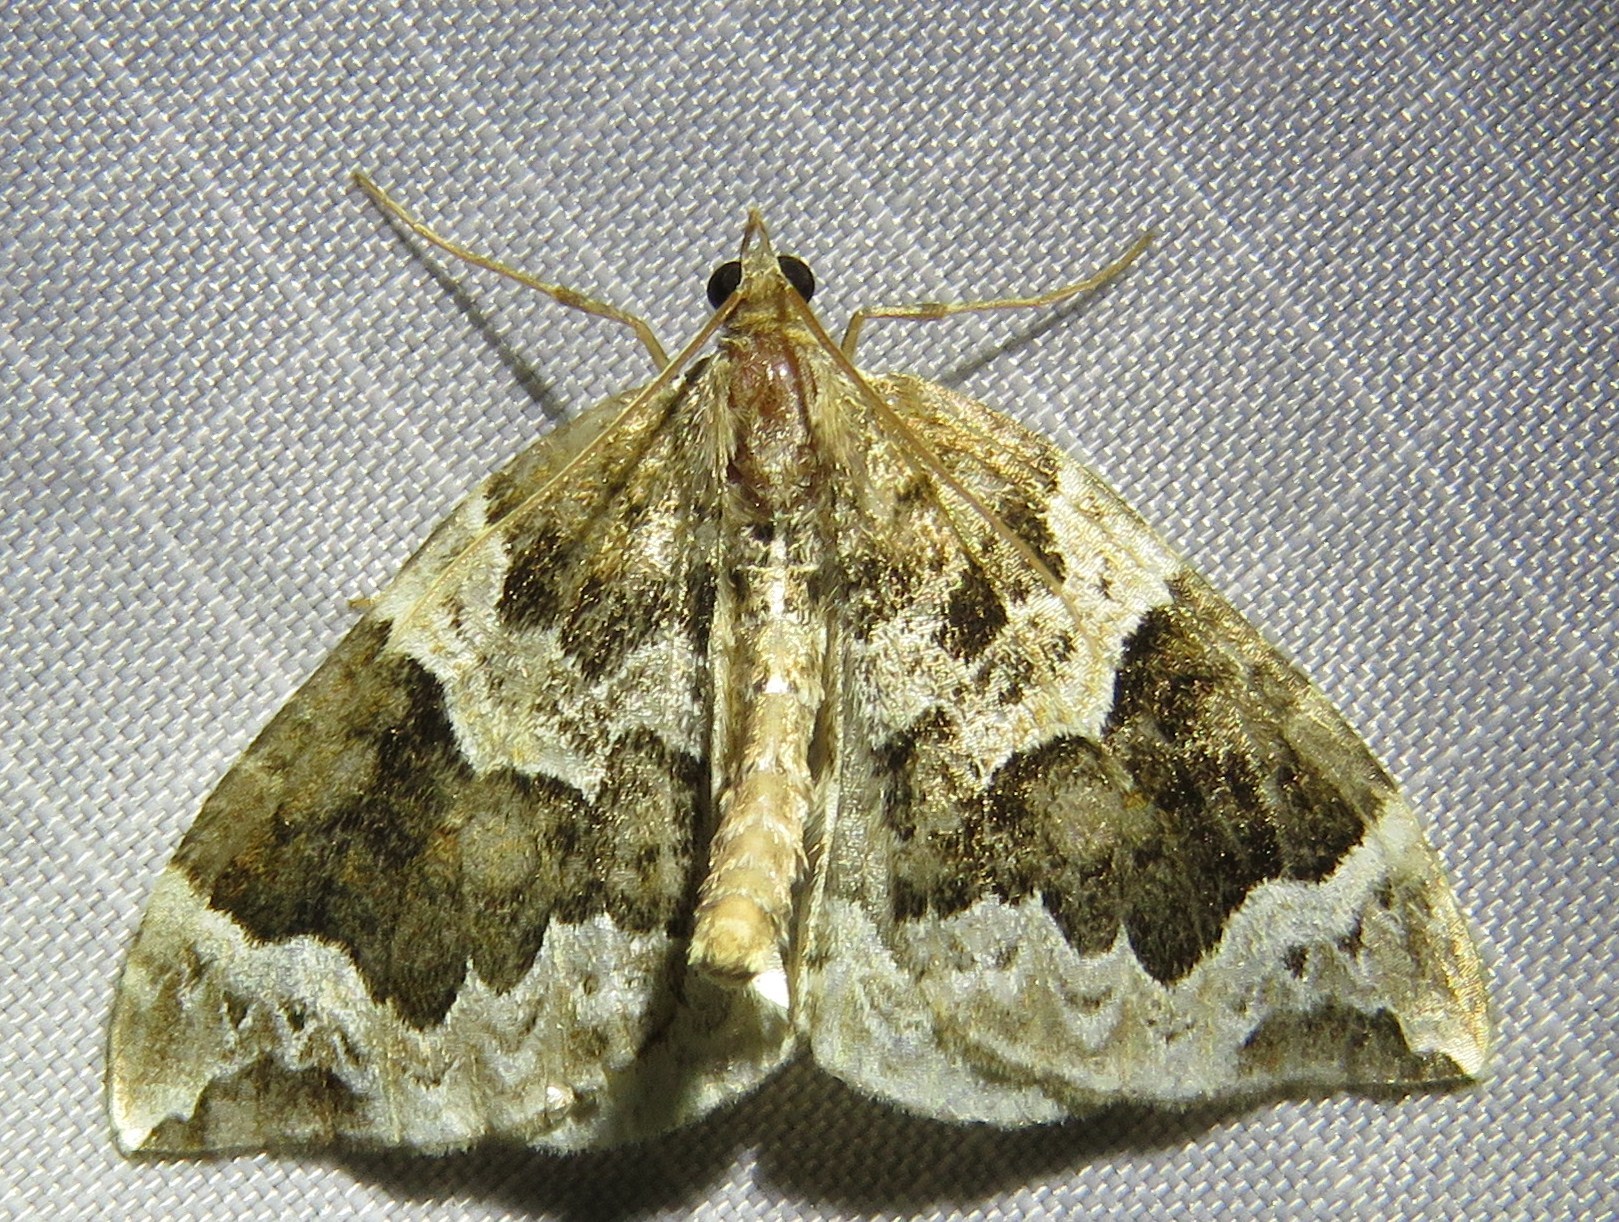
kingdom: Animalia
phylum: Arthropoda
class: Insecta
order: Lepidoptera
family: Geometridae
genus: Eulithis
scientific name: Eulithis prunata
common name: Phoenix
